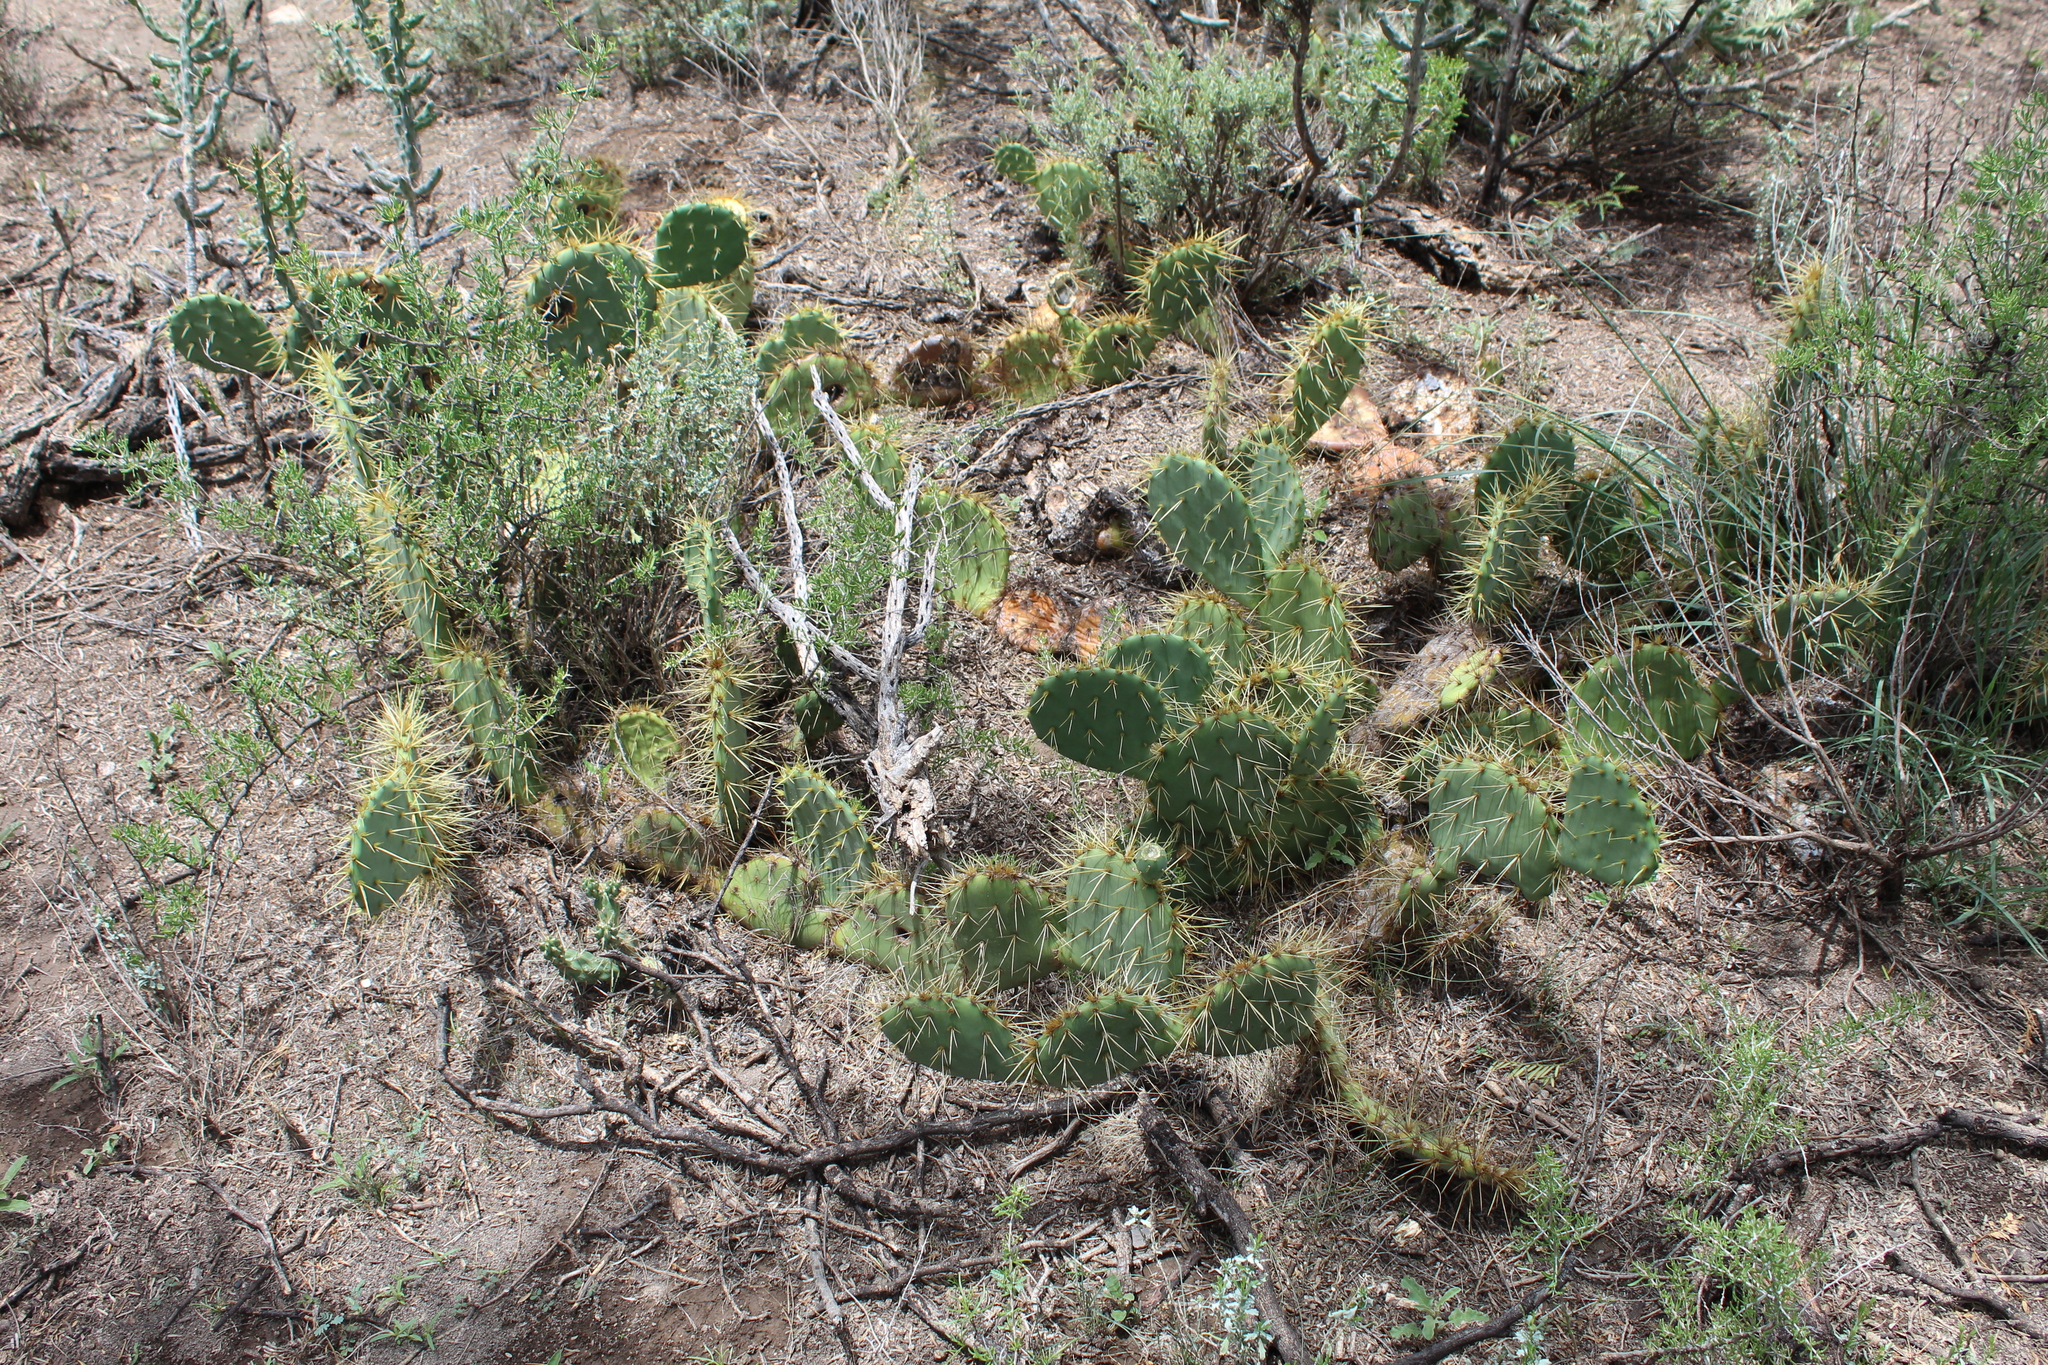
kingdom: Plantae
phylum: Tracheophyta
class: Magnoliopsida
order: Caryophyllales
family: Cactaceae
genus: Opuntia
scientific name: Opuntia rastrera
